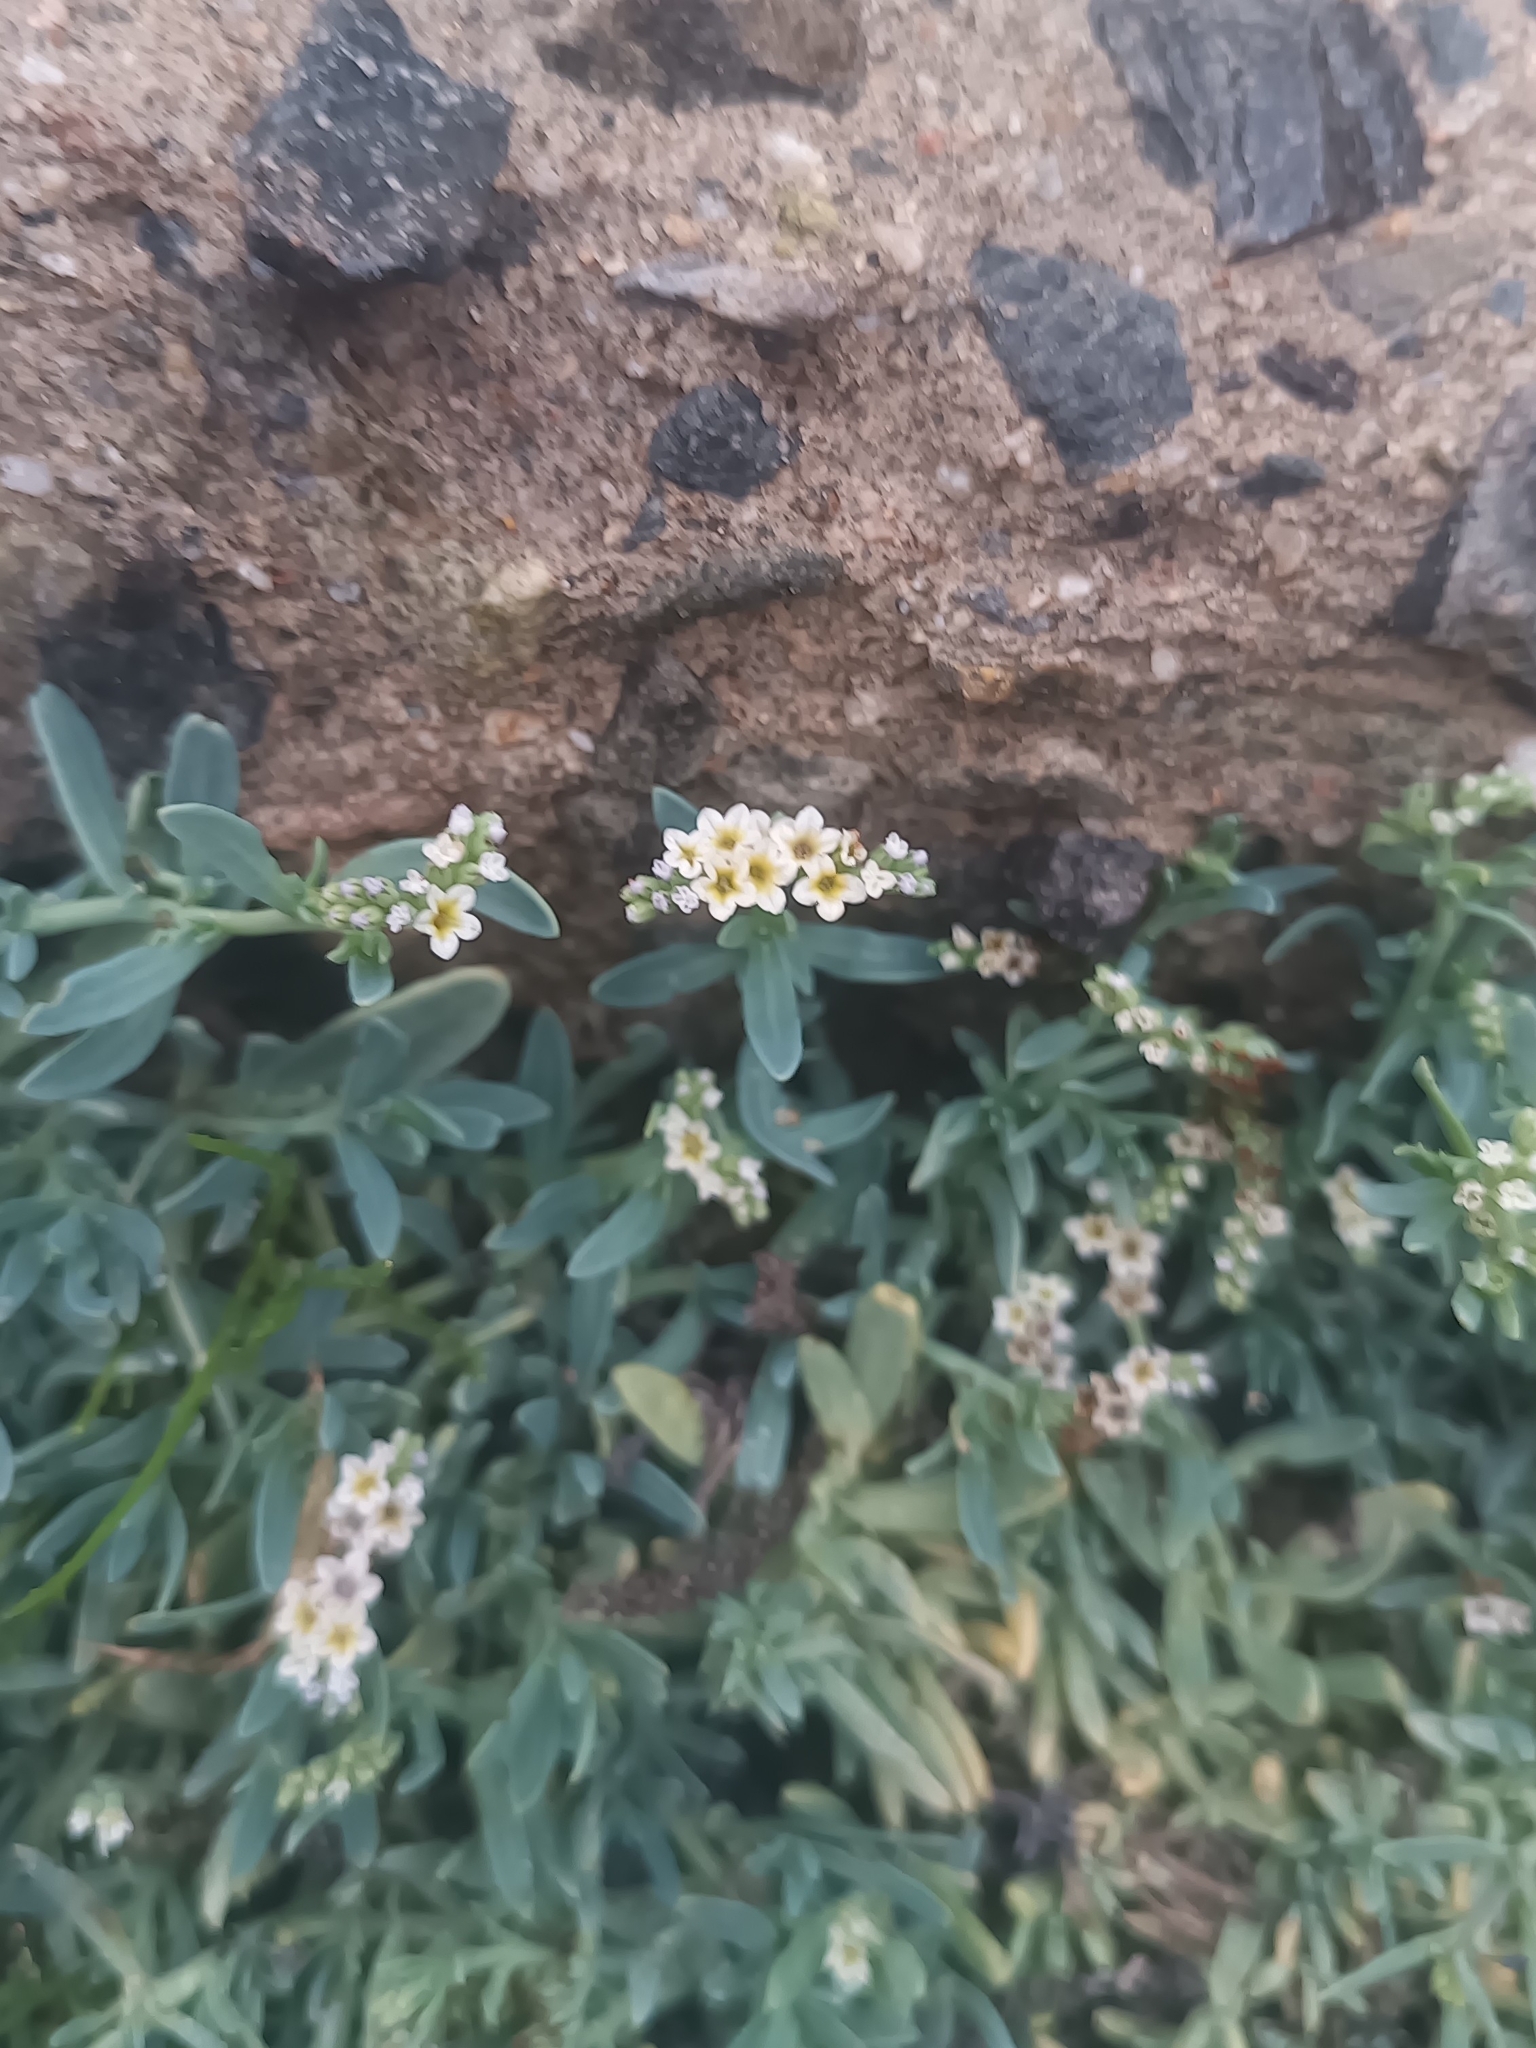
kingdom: Plantae
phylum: Tracheophyta
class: Magnoliopsida
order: Boraginales
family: Heliotropiaceae
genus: Heliotropium
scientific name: Heliotropium curassavicum
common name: Seaside heliotrope
